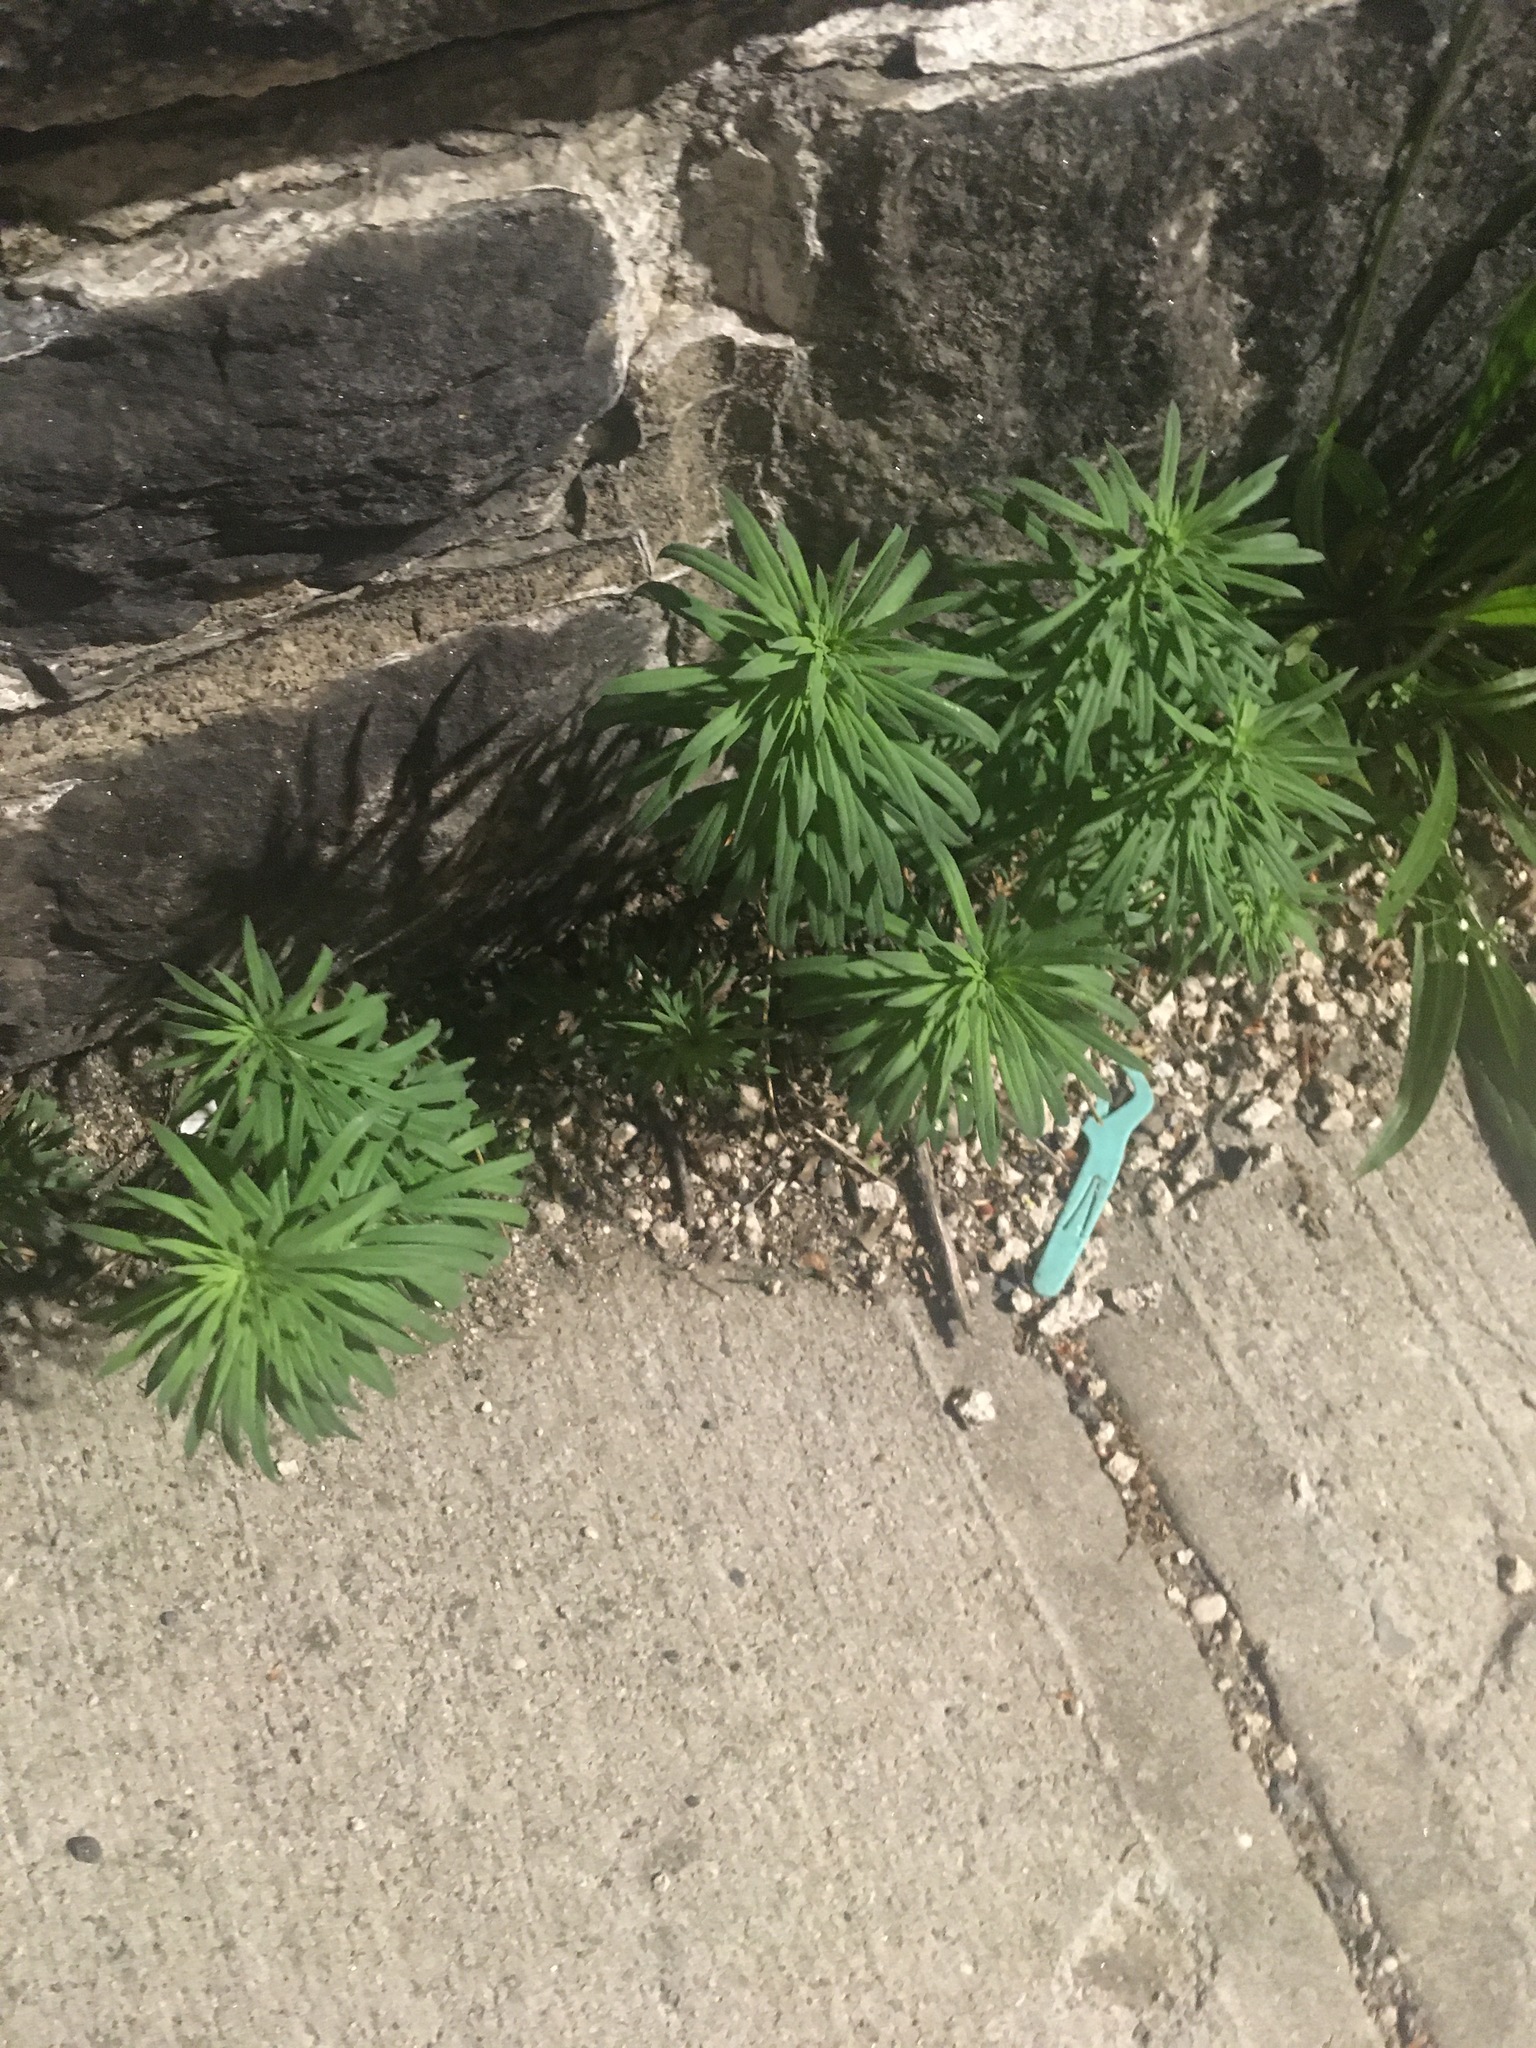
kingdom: Plantae
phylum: Tracheophyta
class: Magnoliopsida
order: Malpighiales
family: Euphorbiaceae
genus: Euphorbia
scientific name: Euphorbia cyparissias
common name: Cypress spurge
